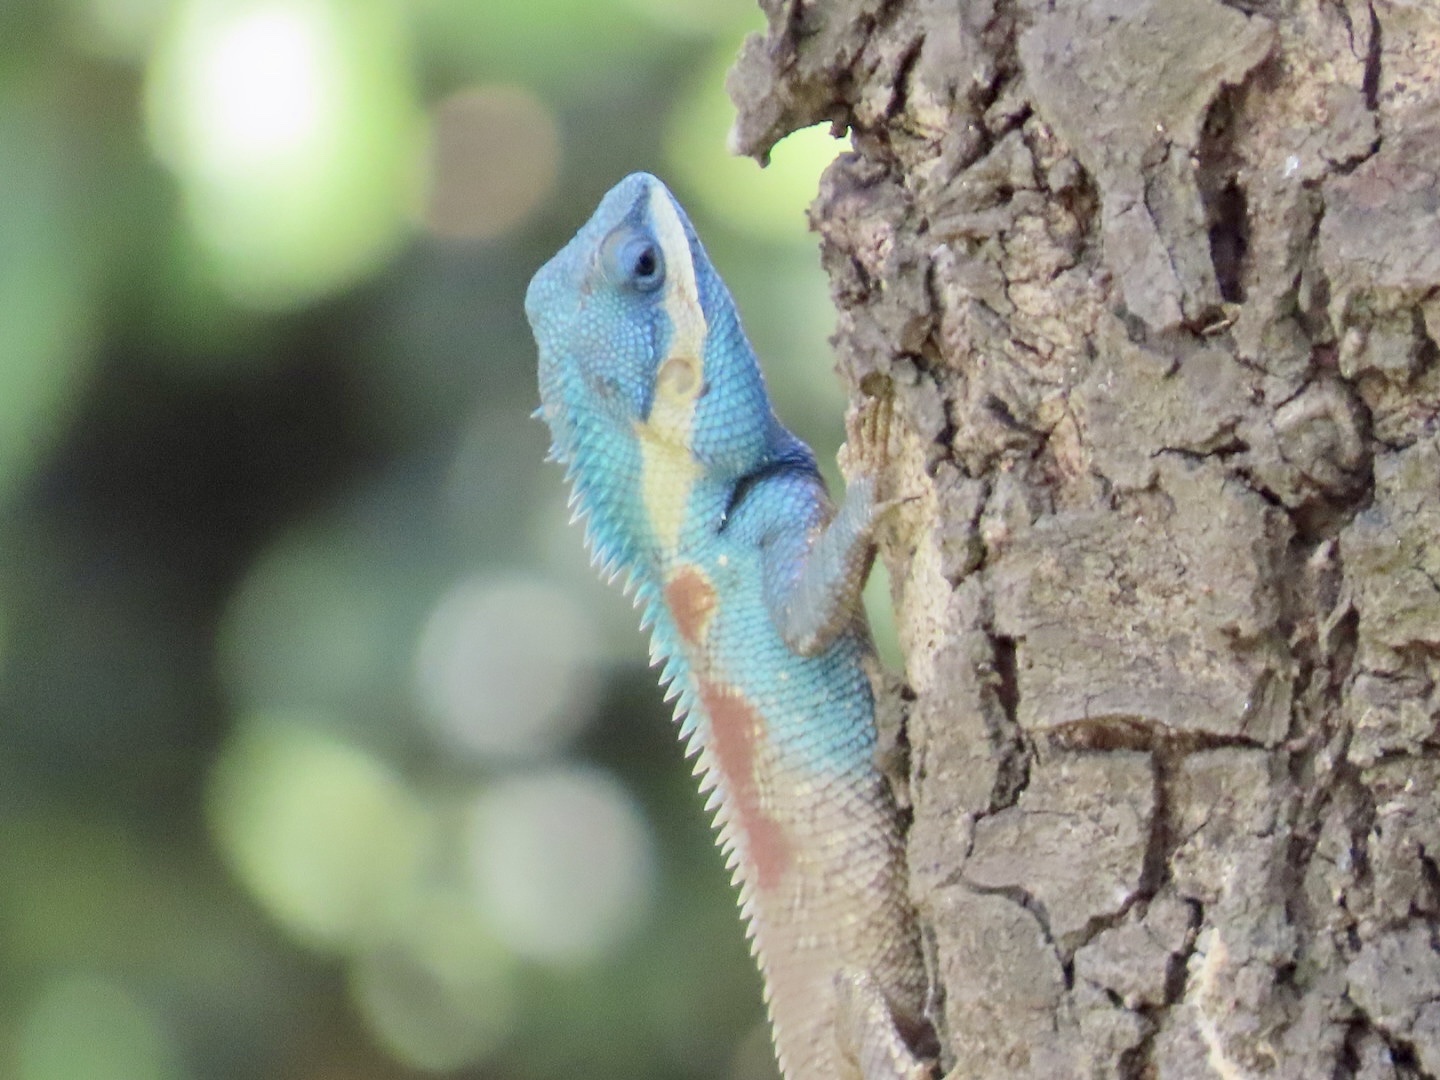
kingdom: Animalia
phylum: Chordata
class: Squamata
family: Agamidae
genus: Calotes
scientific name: Calotes mystaceus
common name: Indo-chinese forest lizard
